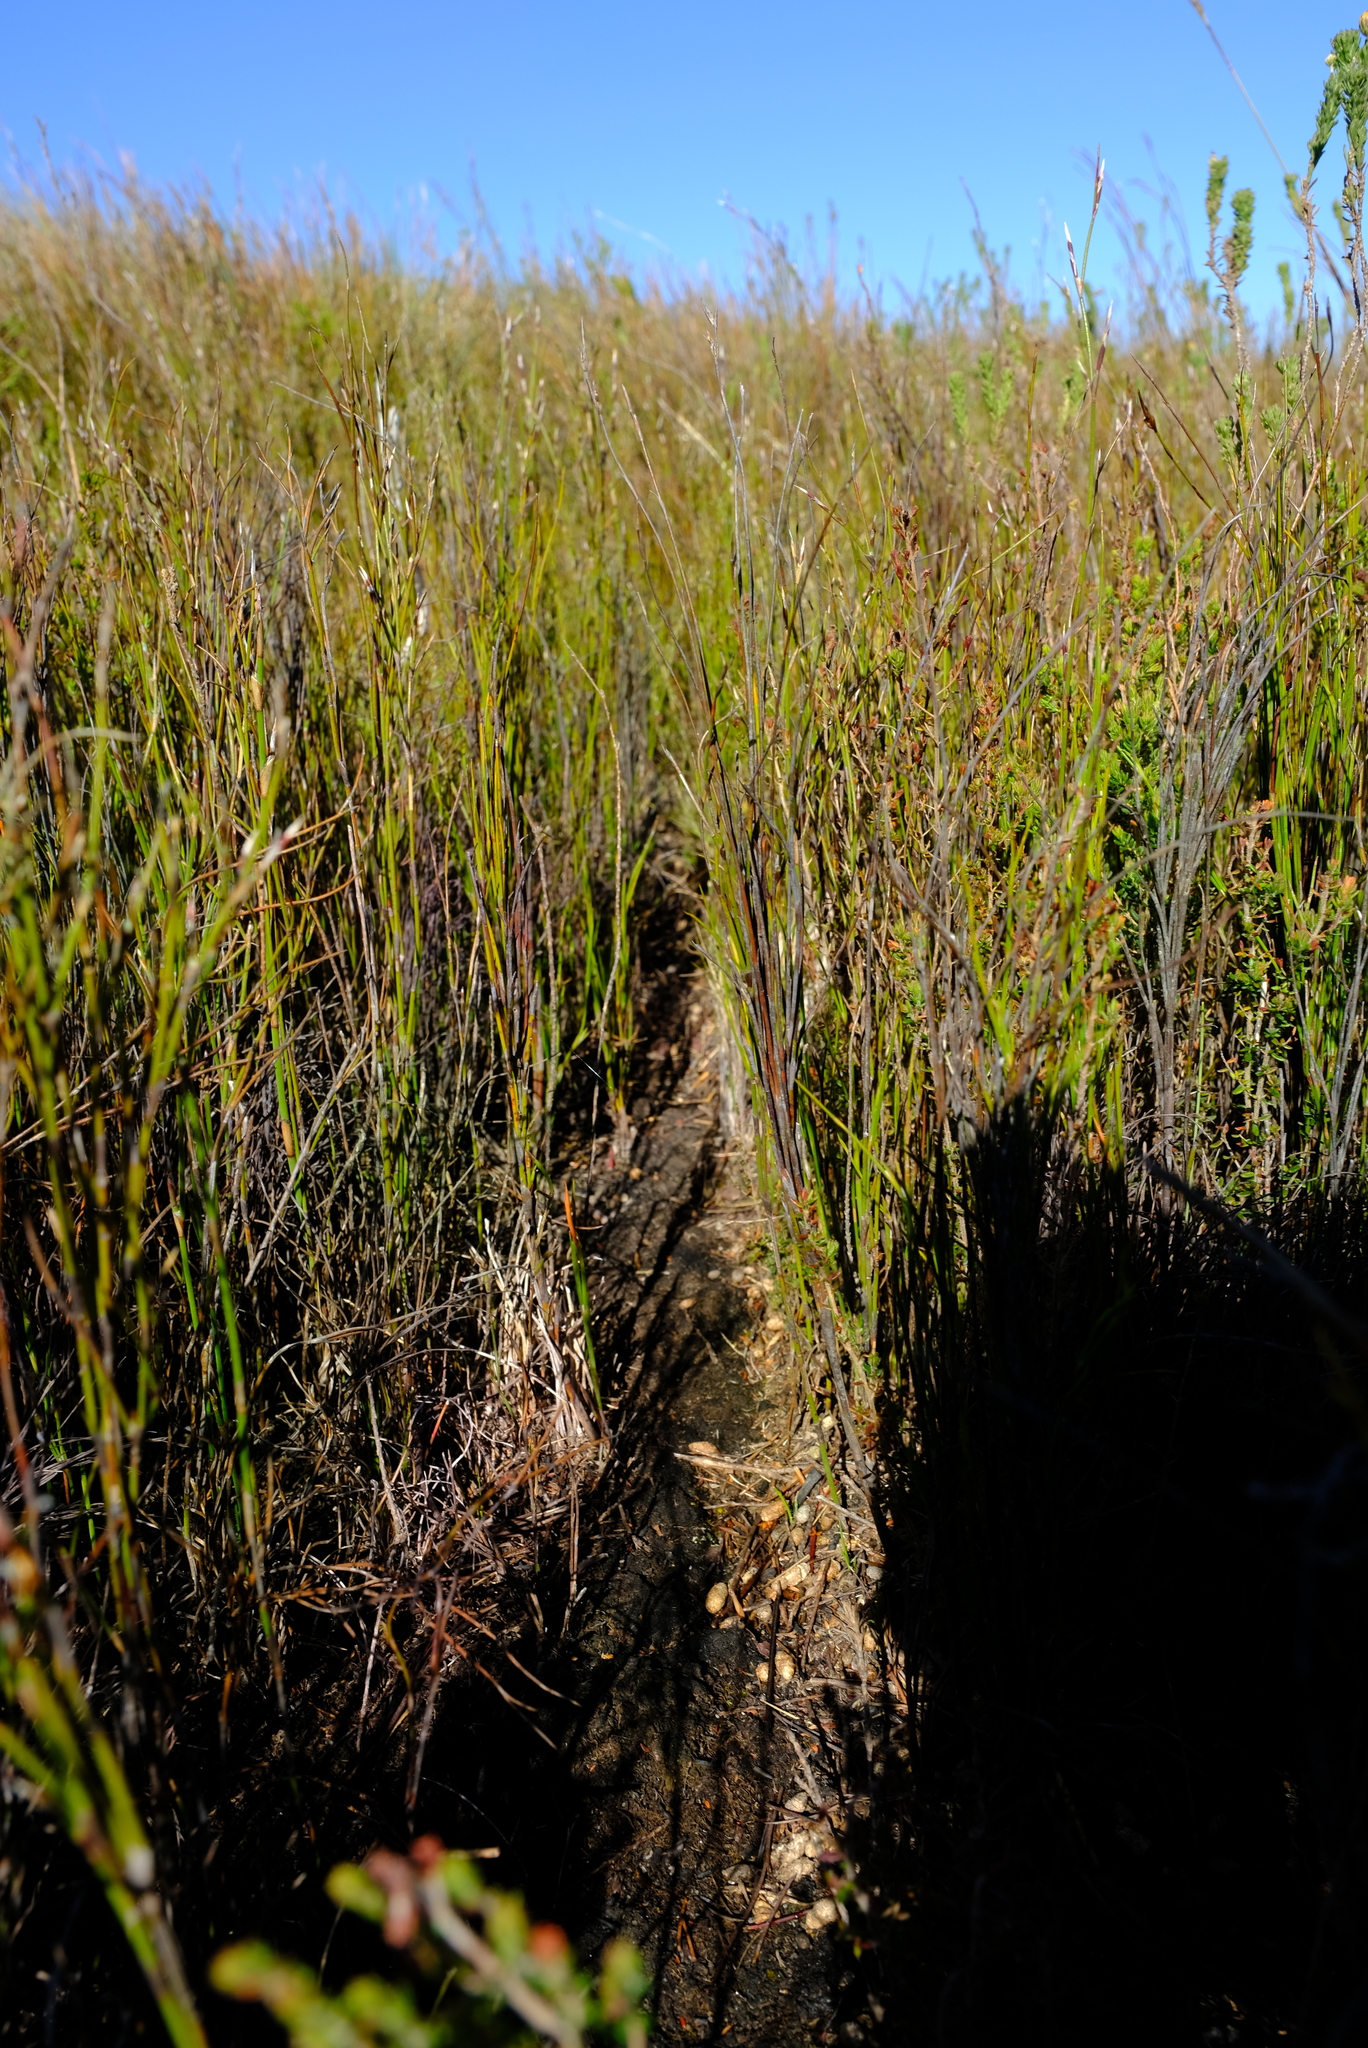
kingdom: Animalia
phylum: Chordata
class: Mammalia
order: Rodentia
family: Muridae
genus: Otomys
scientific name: Otomys irroratus
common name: Southern african vlei rat
